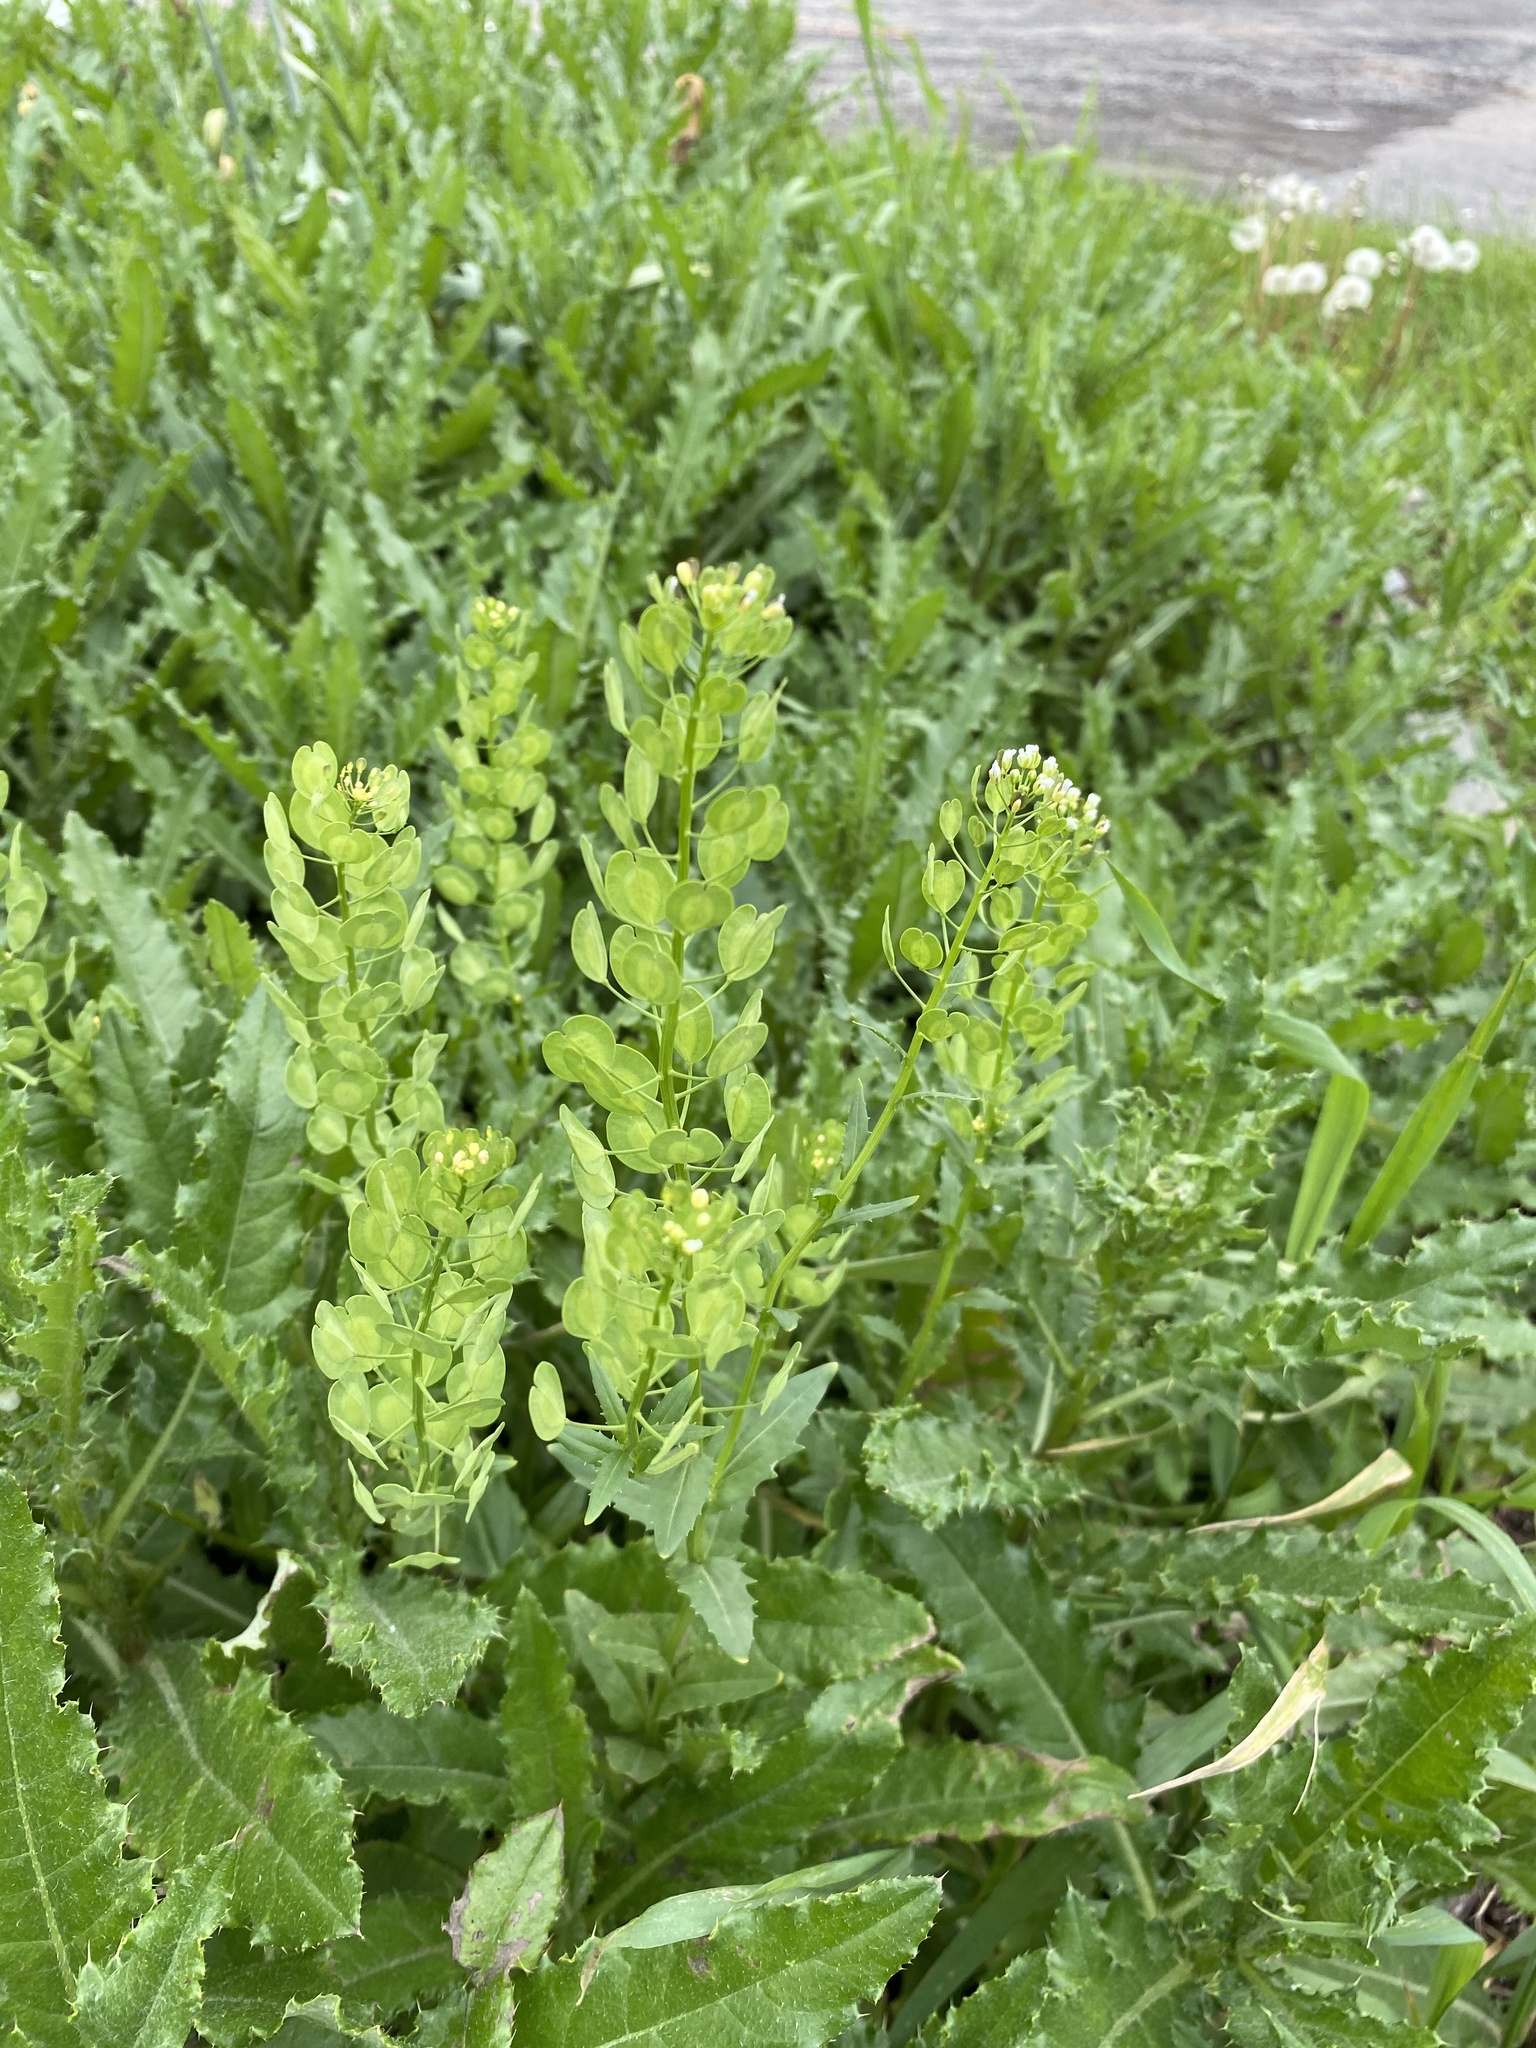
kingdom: Plantae
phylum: Tracheophyta
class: Magnoliopsida
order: Brassicales
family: Brassicaceae
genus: Thlaspi
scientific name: Thlaspi arvense
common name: Field pennycress
